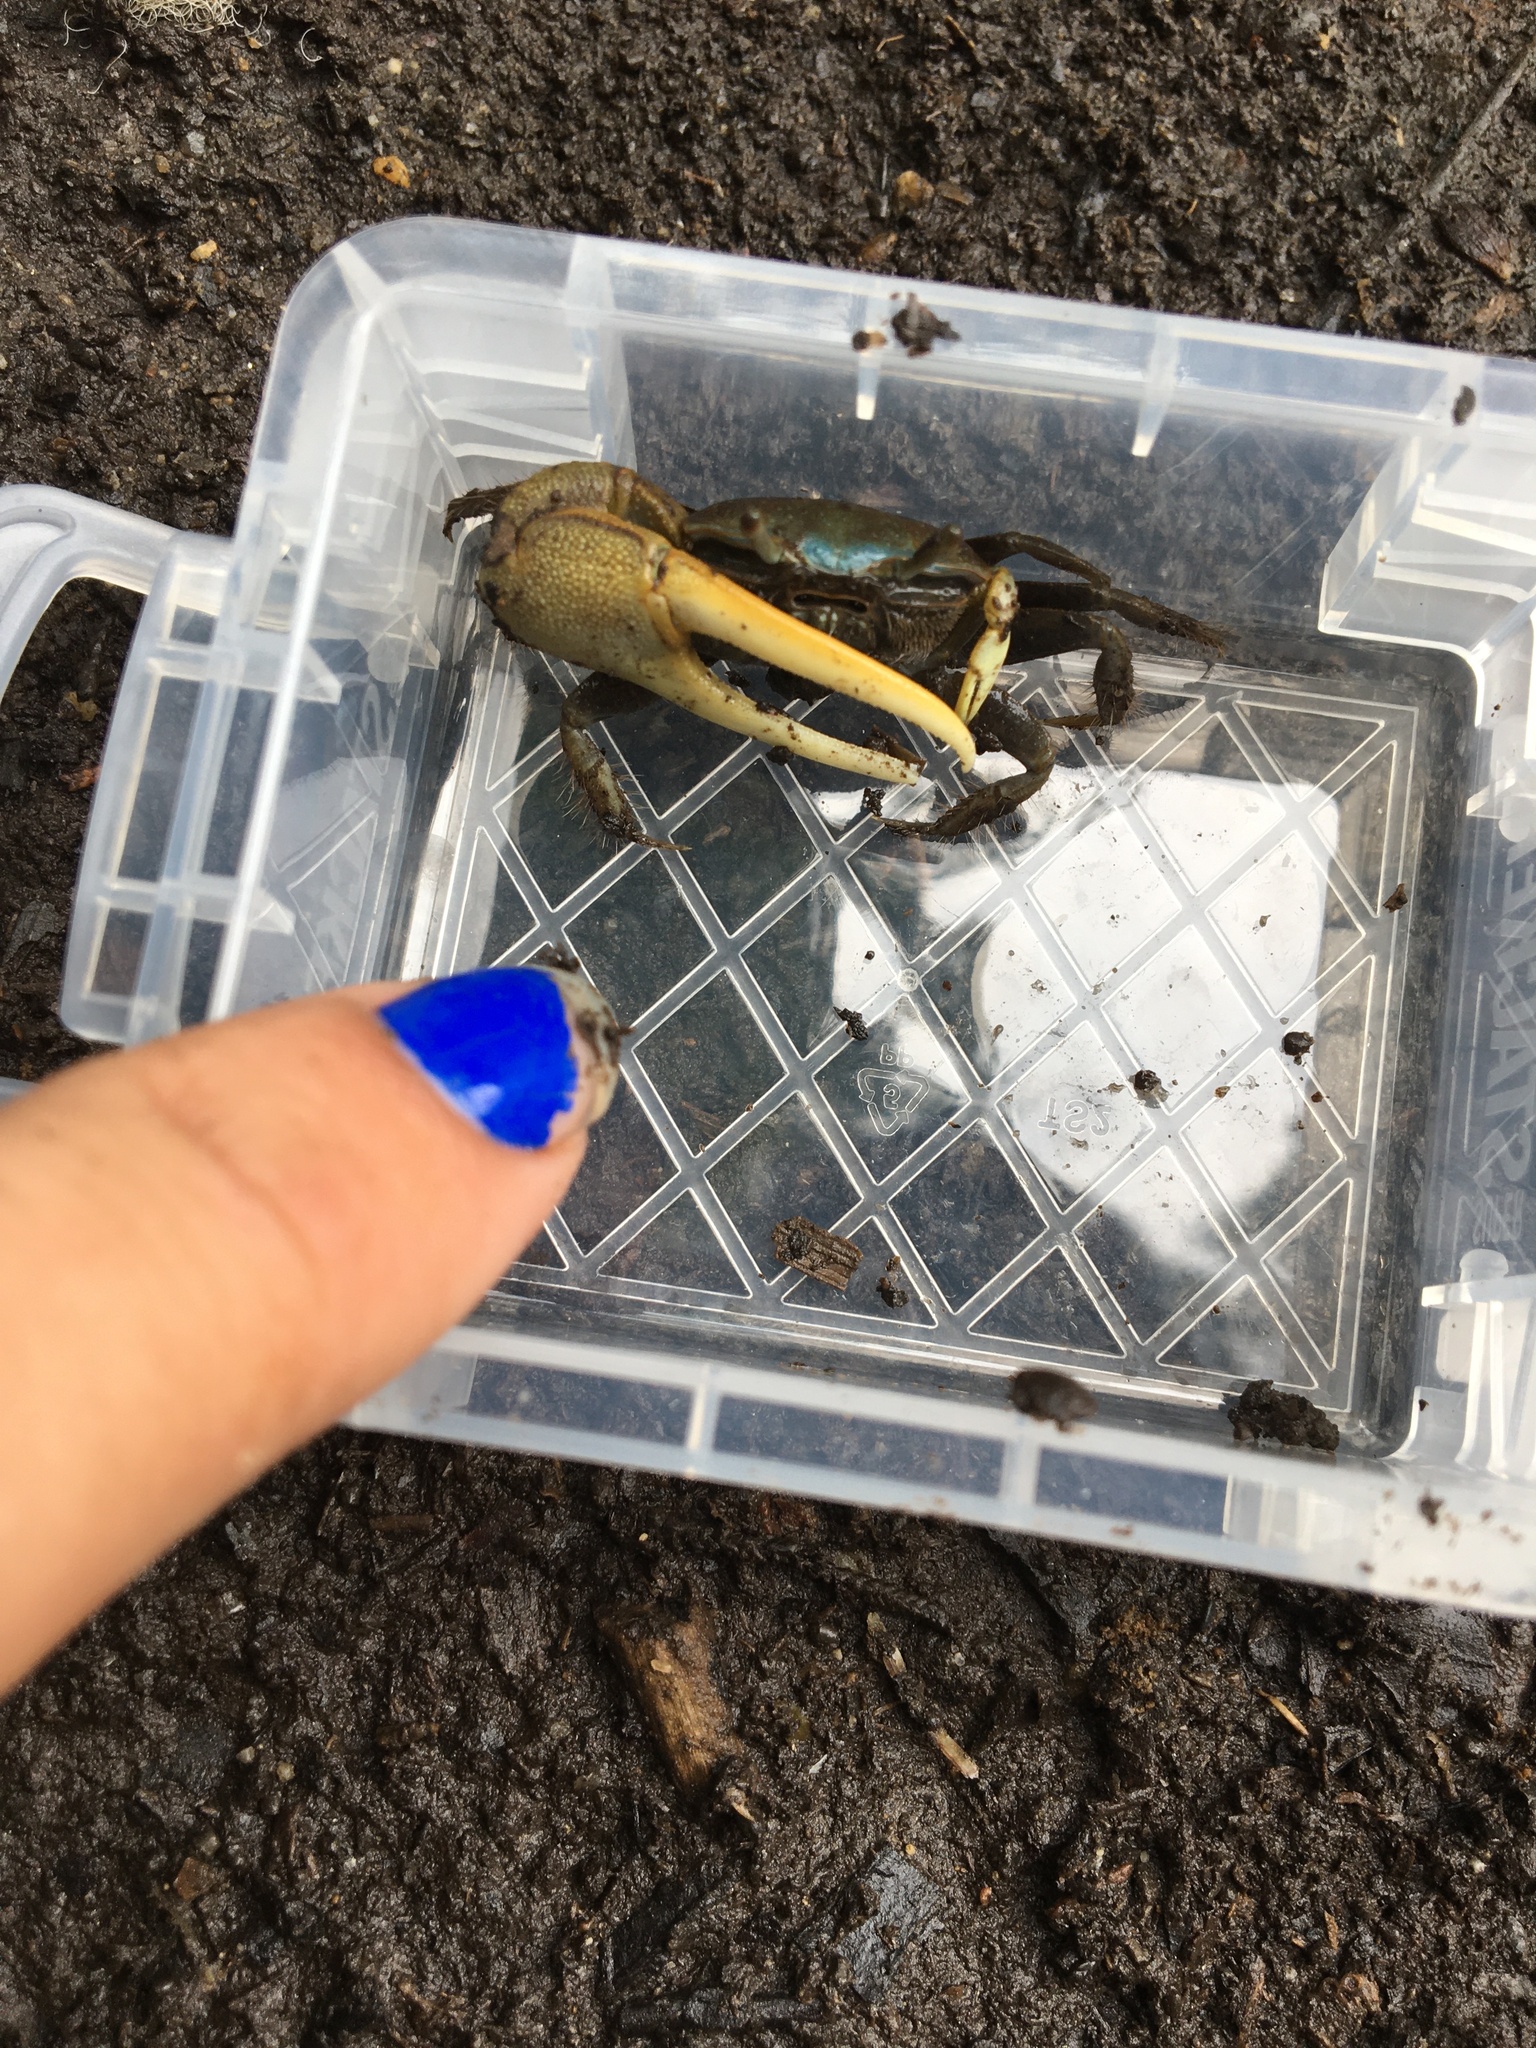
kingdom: Animalia
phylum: Arthropoda
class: Malacostraca
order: Decapoda
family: Ocypodidae
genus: Minuca
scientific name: Minuca pugnax
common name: Mud fiddler crab
